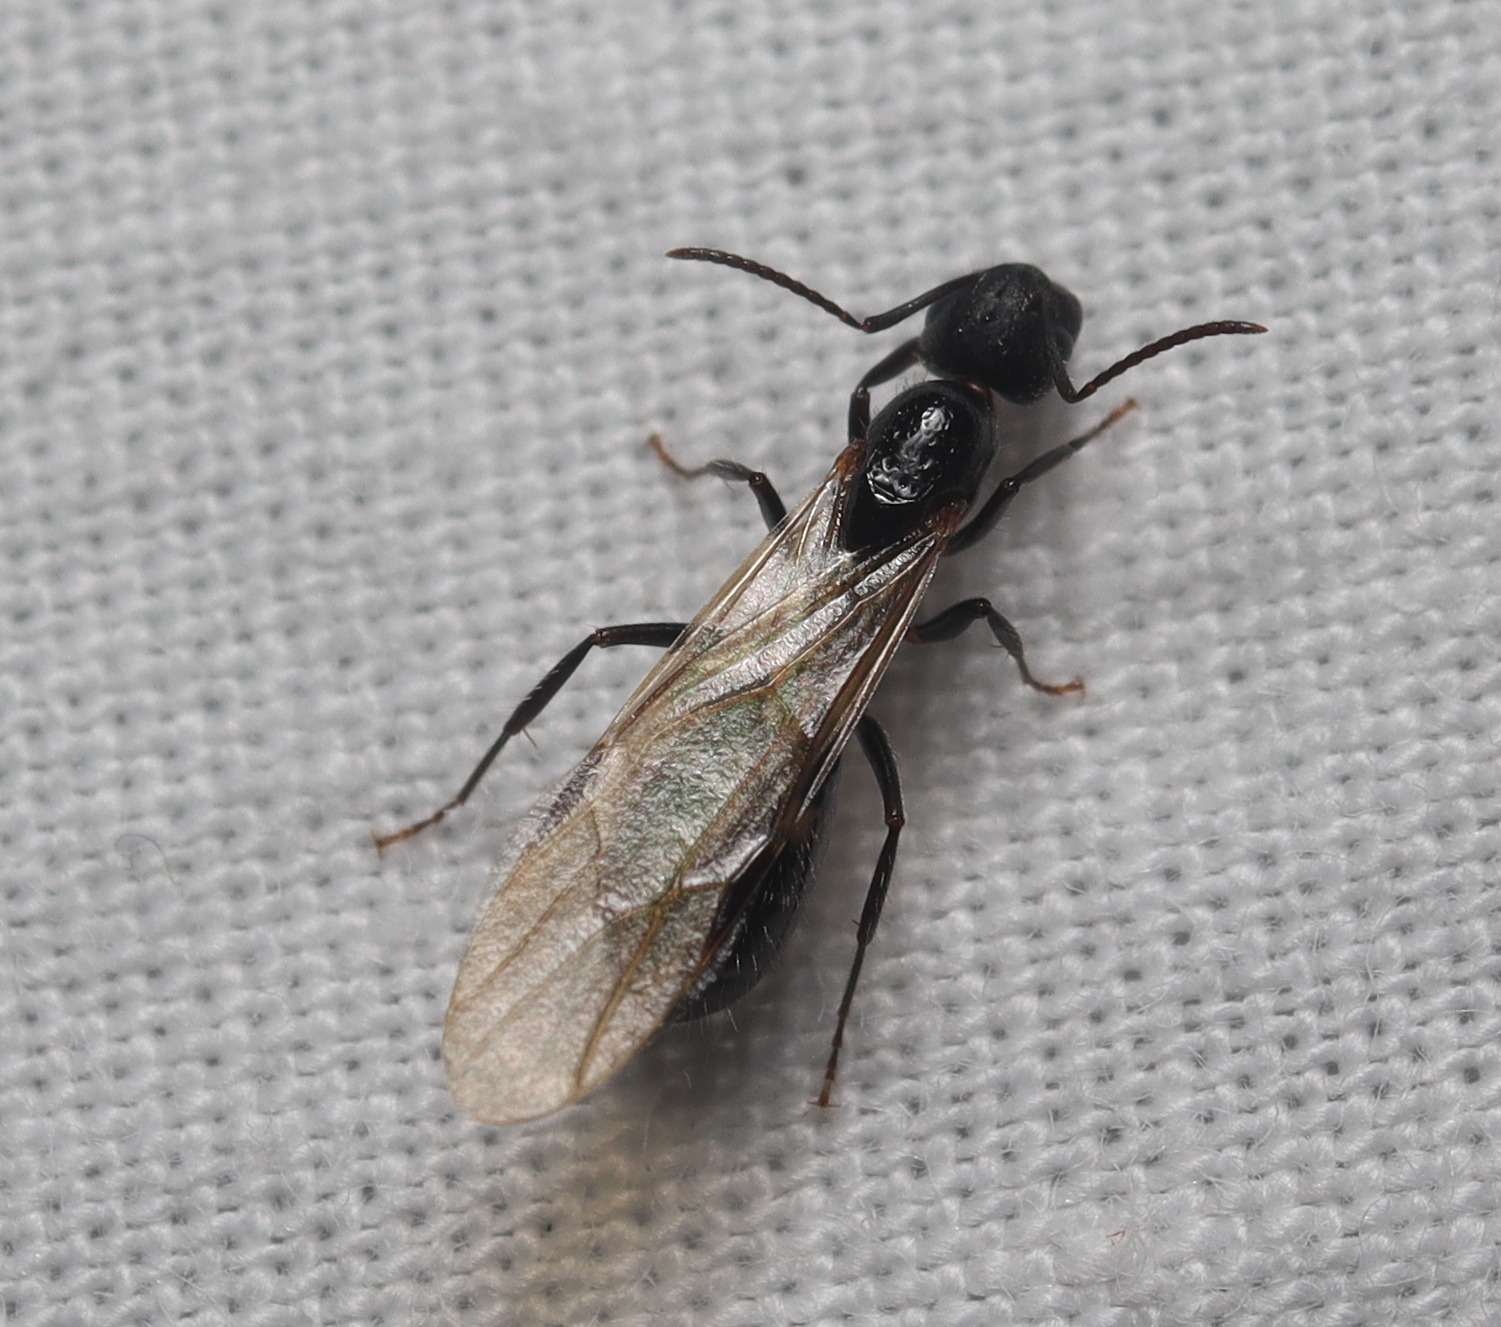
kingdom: Animalia
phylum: Arthropoda
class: Insecta
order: Hymenoptera
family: Formicidae
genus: Camponotus
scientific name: Camponotus sexguttatus
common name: Neotropical carpenter ant
